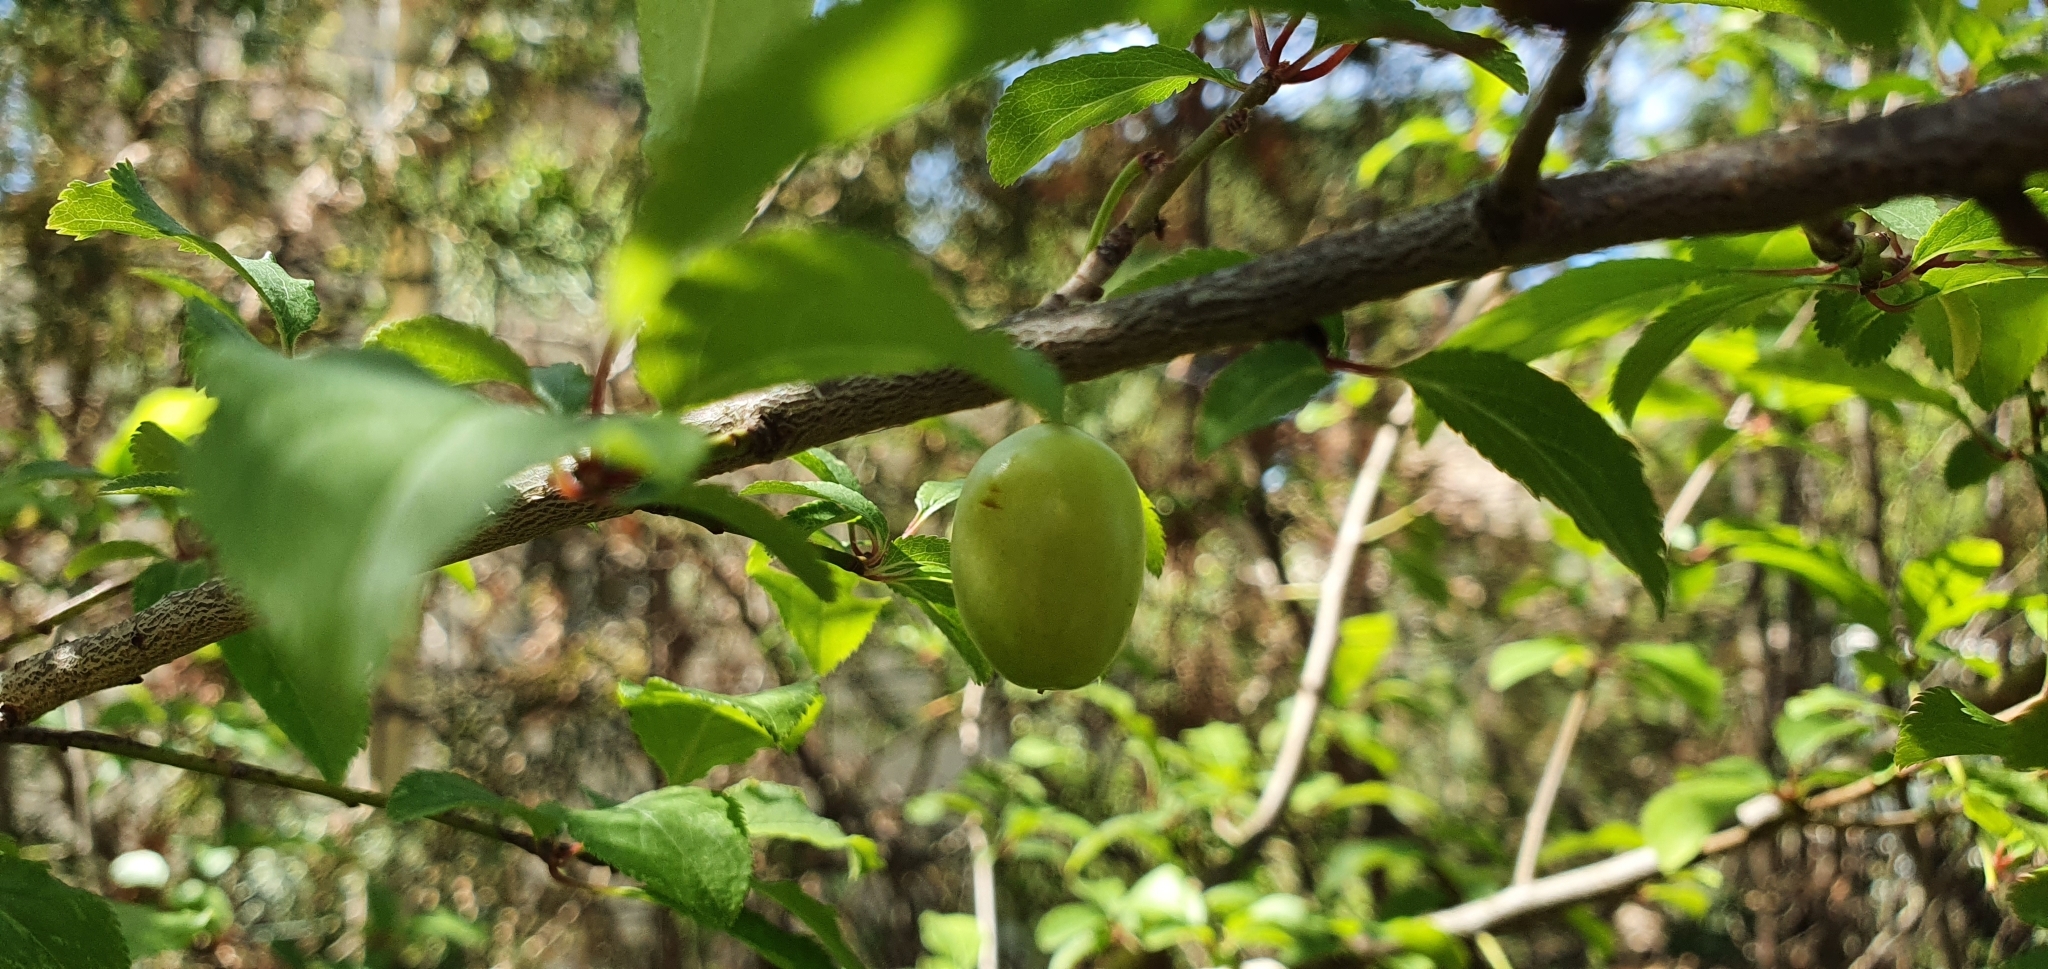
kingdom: Plantae
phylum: Tracheophyta
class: Magnoliopsida
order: Rosales
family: Rosaceae
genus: Prunus
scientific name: Prunus cerasifera
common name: Cherry plum
